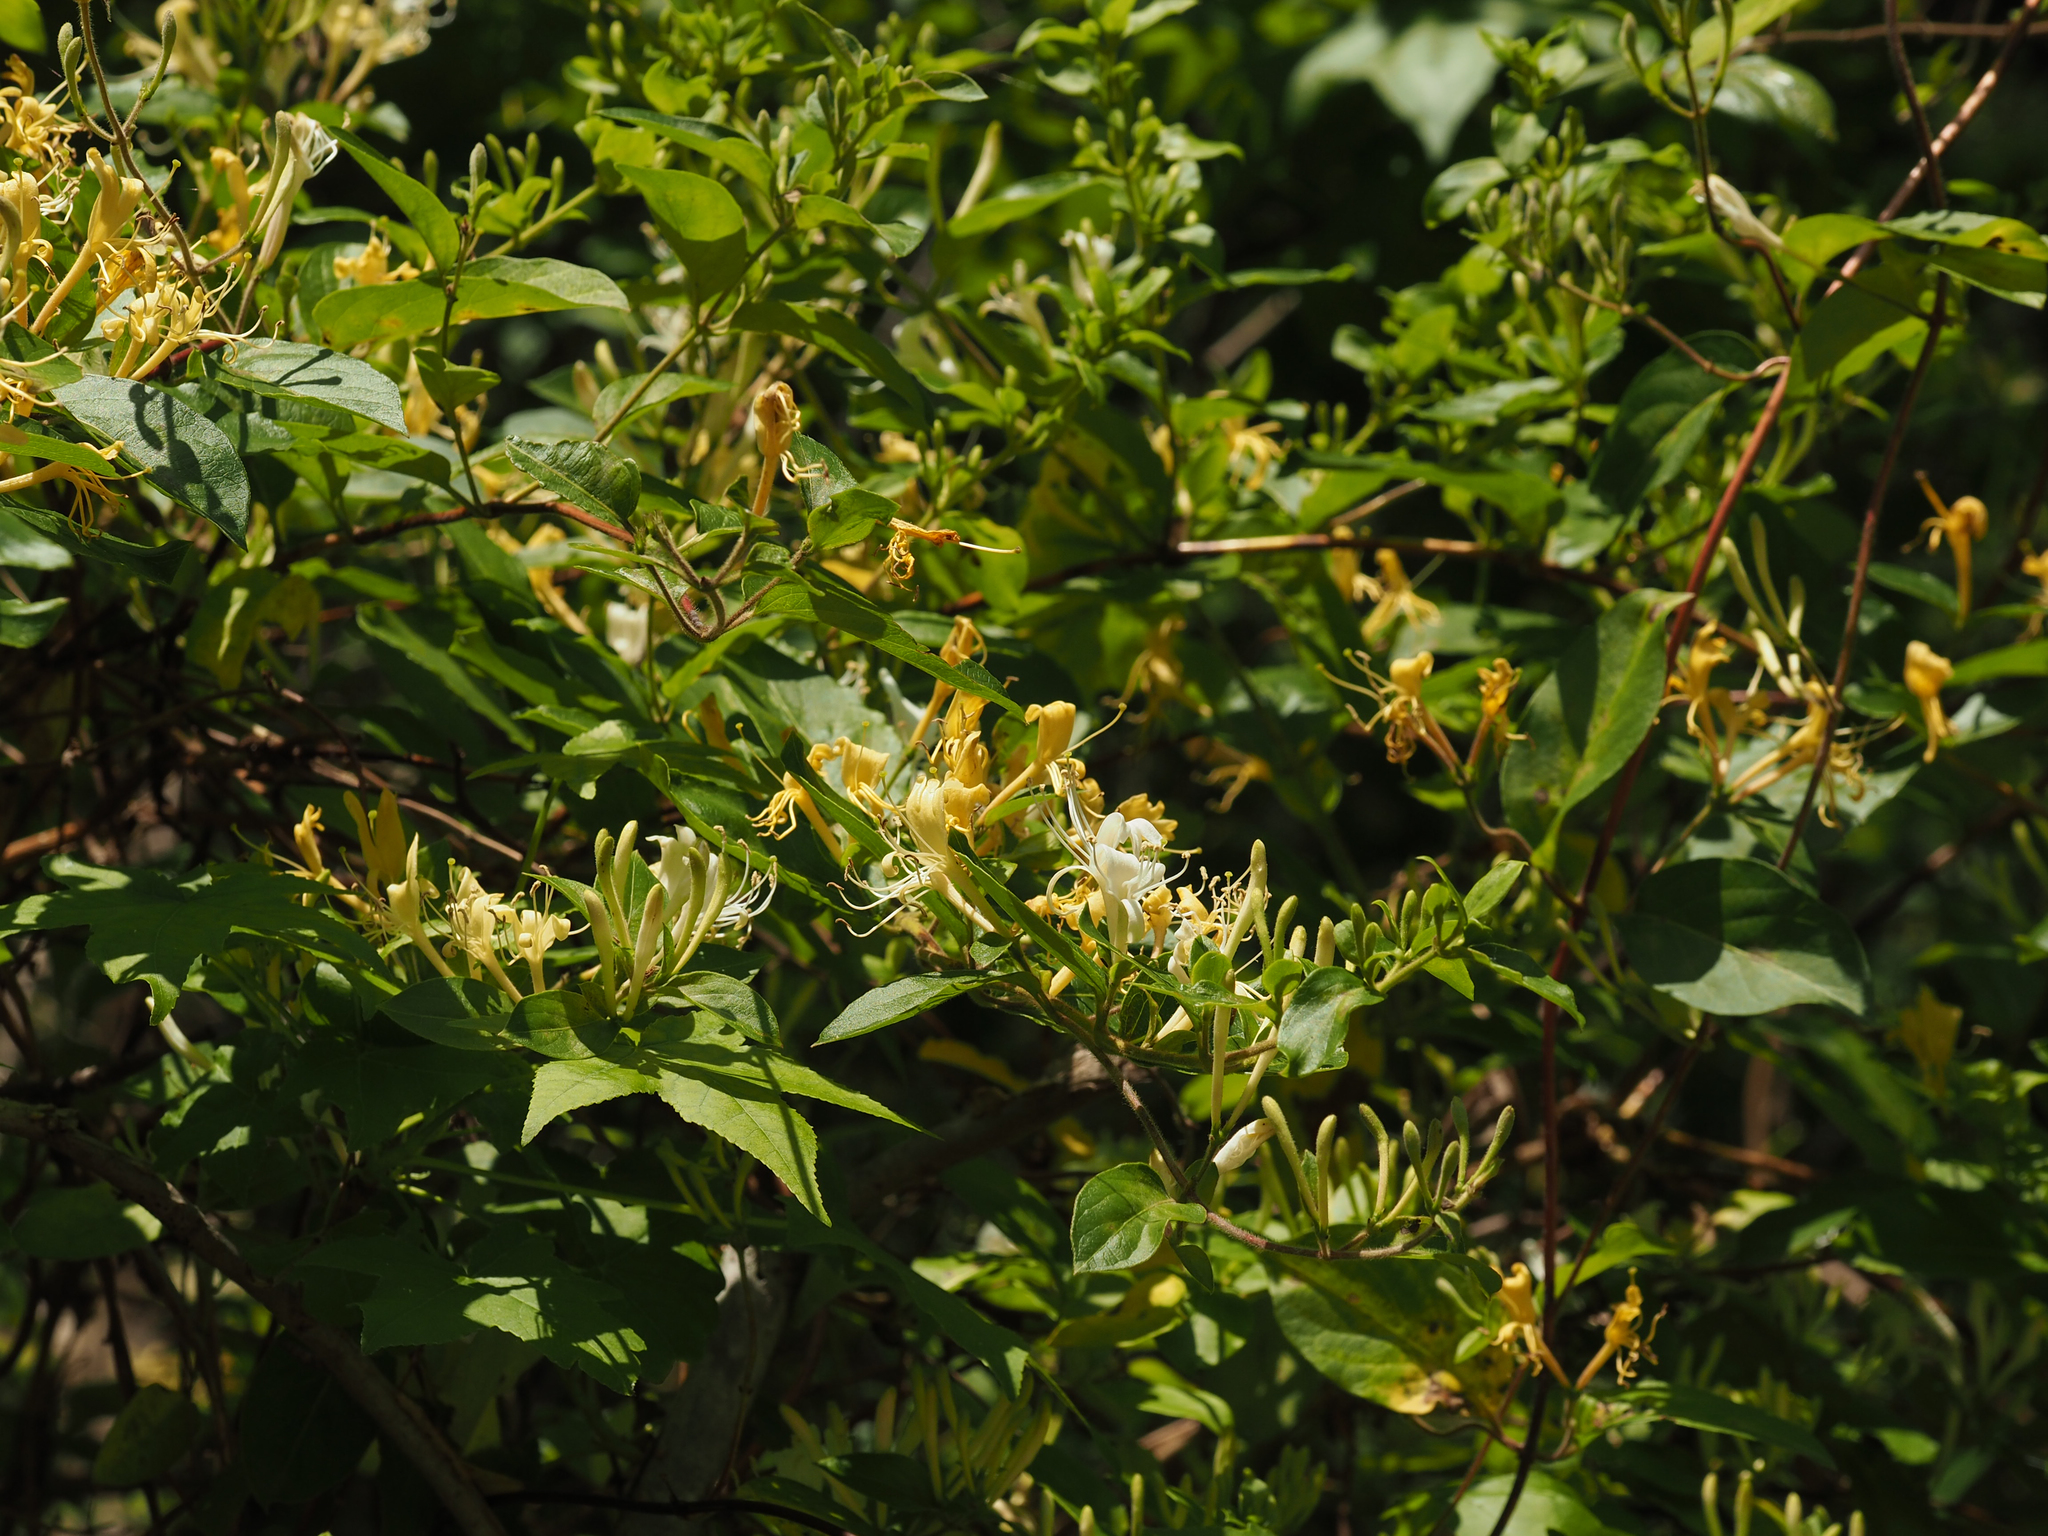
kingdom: Plantae
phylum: Tracheophyta
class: Magnoliopsida
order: Dipsacales
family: Caprifoliaceae
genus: Lonicera
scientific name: Lonicera japonica
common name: Japanese honeysuckle
